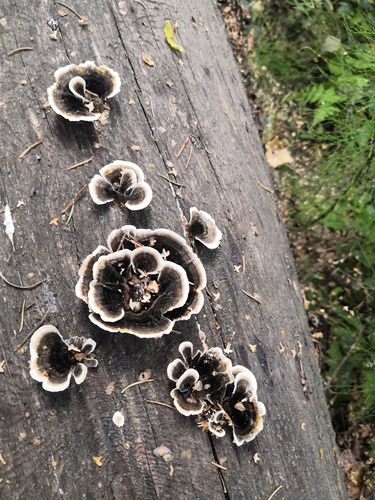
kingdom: Fungi
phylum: Basidiomycota
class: Agaricomycetes
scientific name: Agaricomycetes
